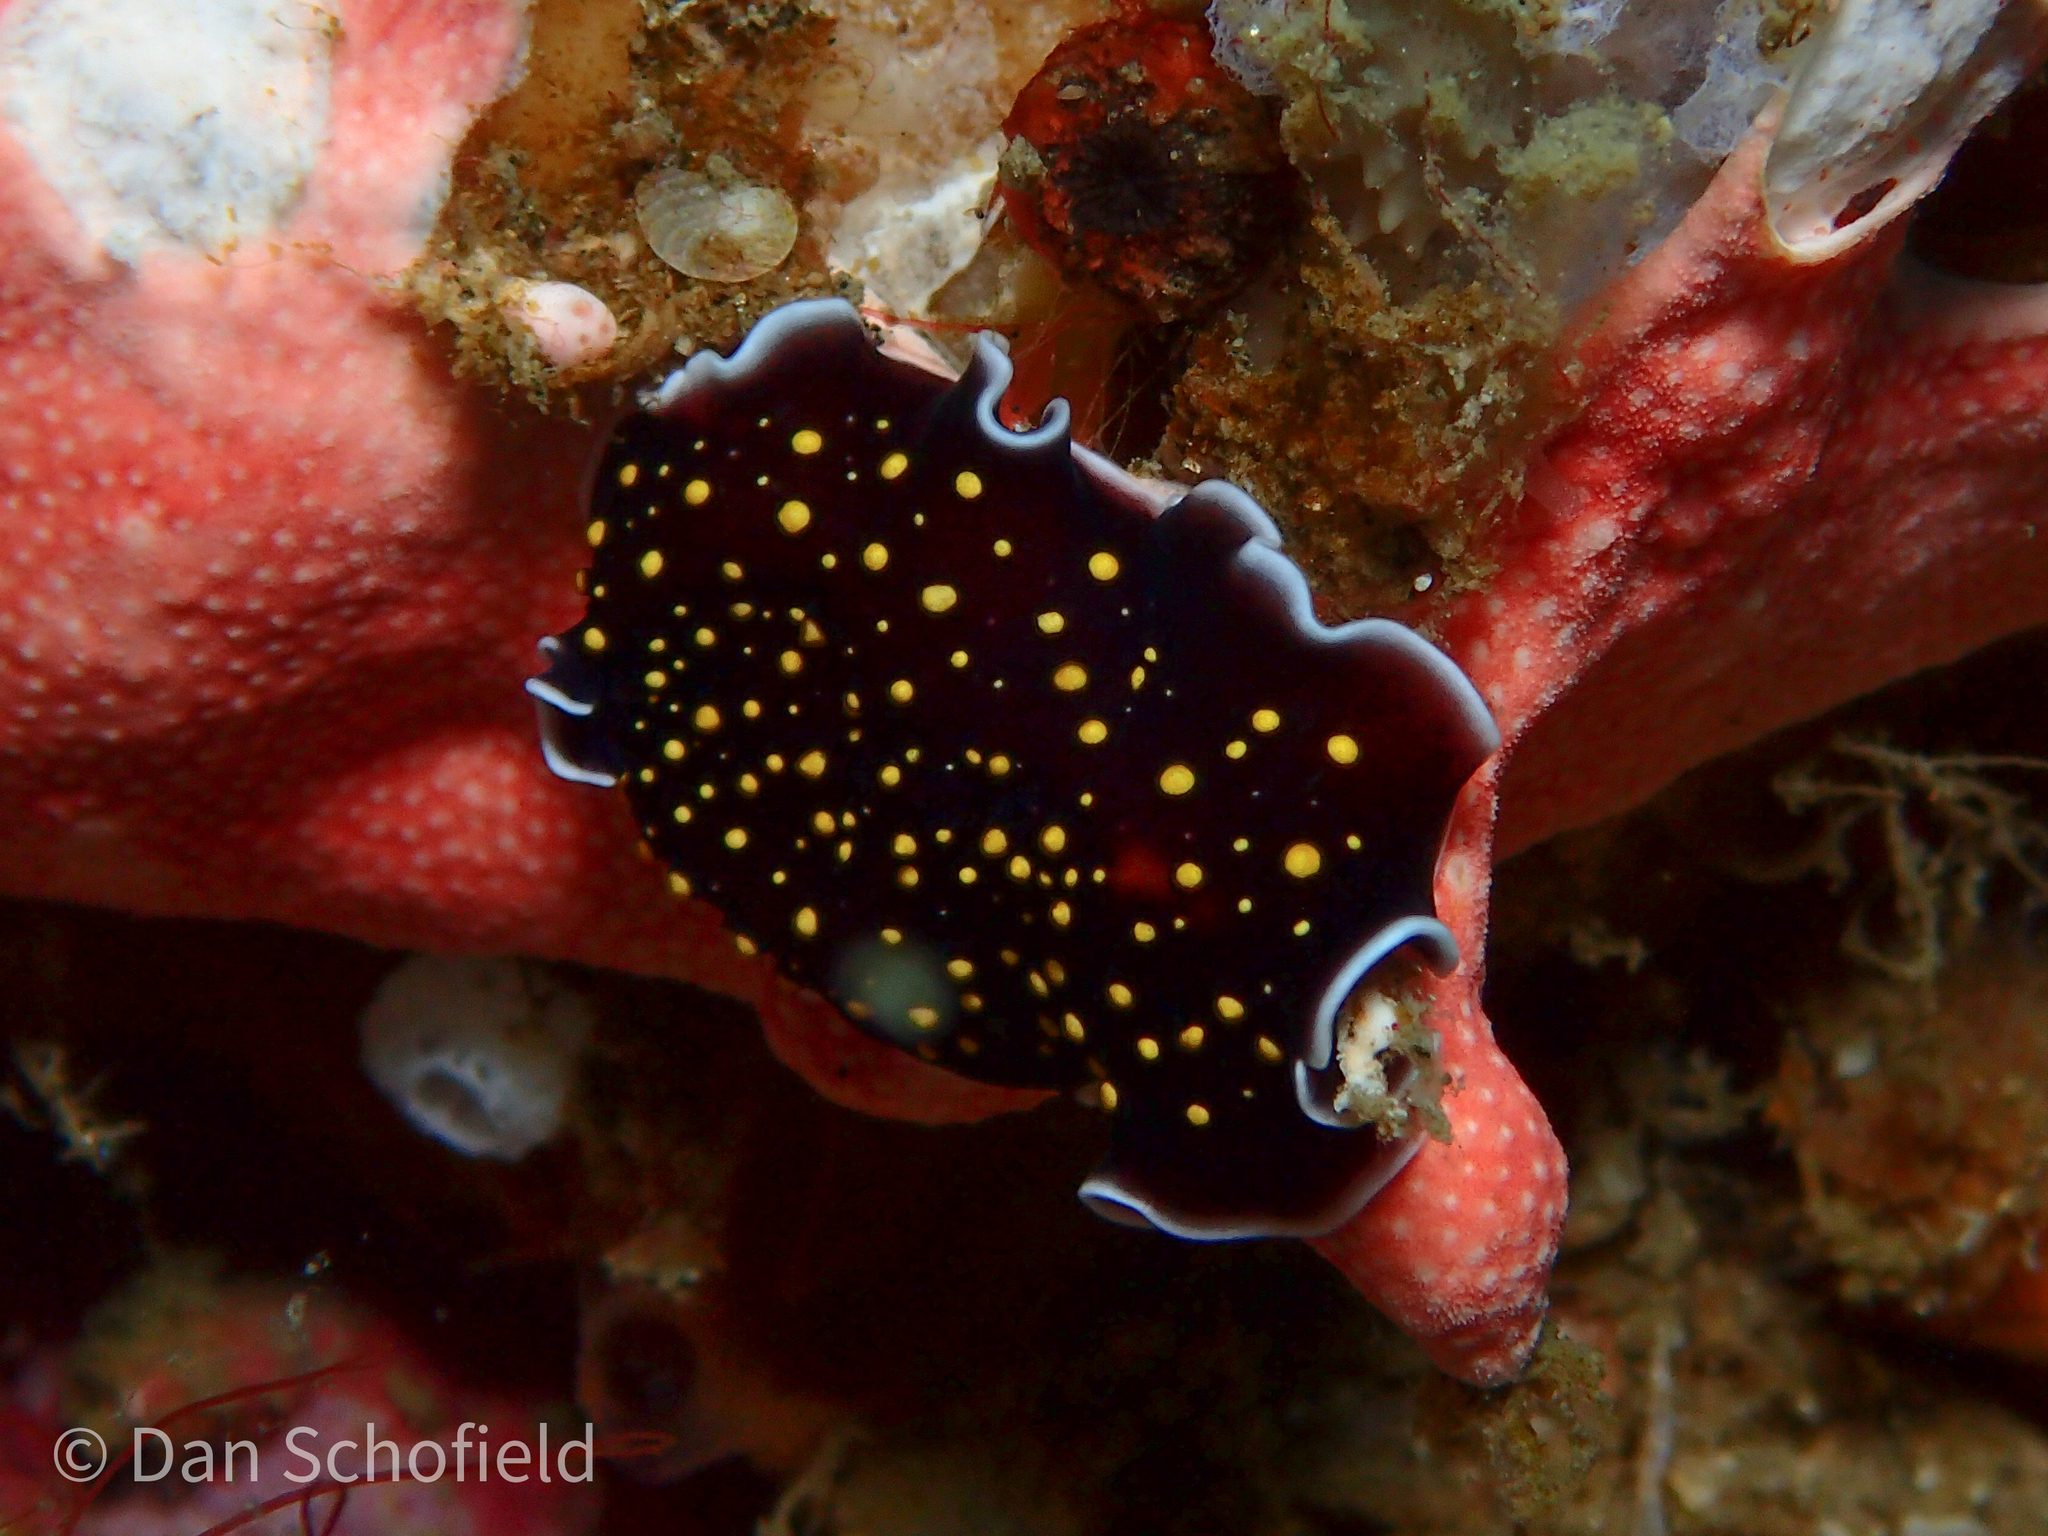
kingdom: Animalia
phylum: Platyhelminthes
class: Turbellaria
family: Pseudocerotidae
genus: Thysanozoon
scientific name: Thysanozoon nigropapillosum
